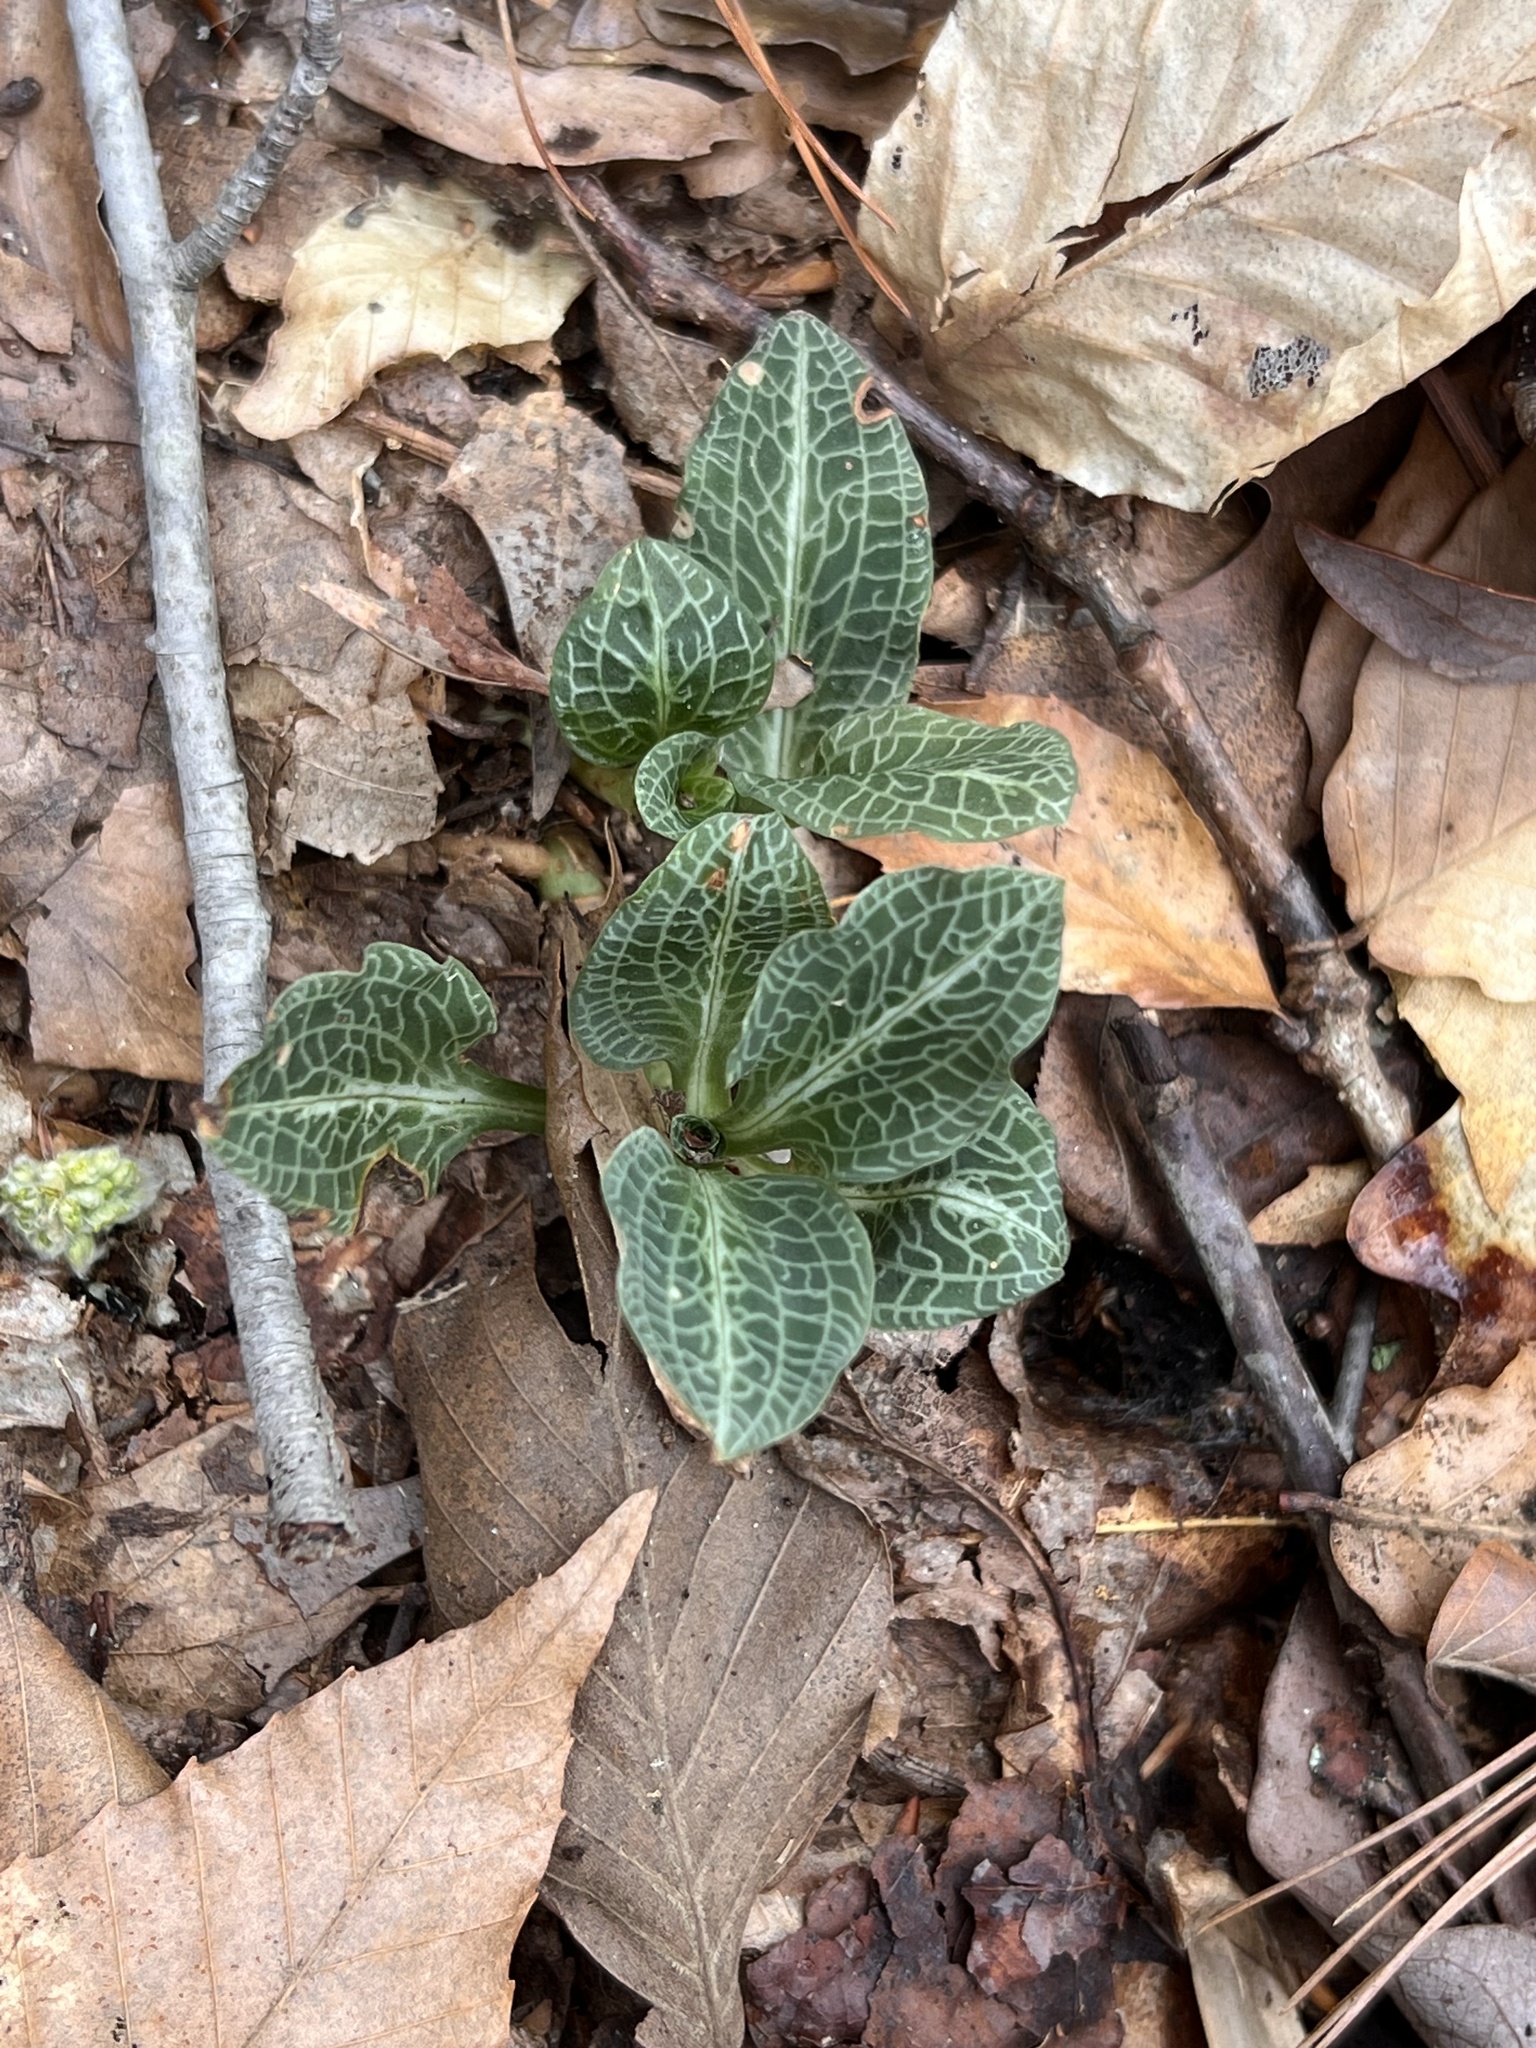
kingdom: Plantae
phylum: Tracheophyta
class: Liliopsida
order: Asparagales
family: Orchidaceae
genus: Goodyera
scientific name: Goodyera pubescens
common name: Downy rattlesnake-plantain
